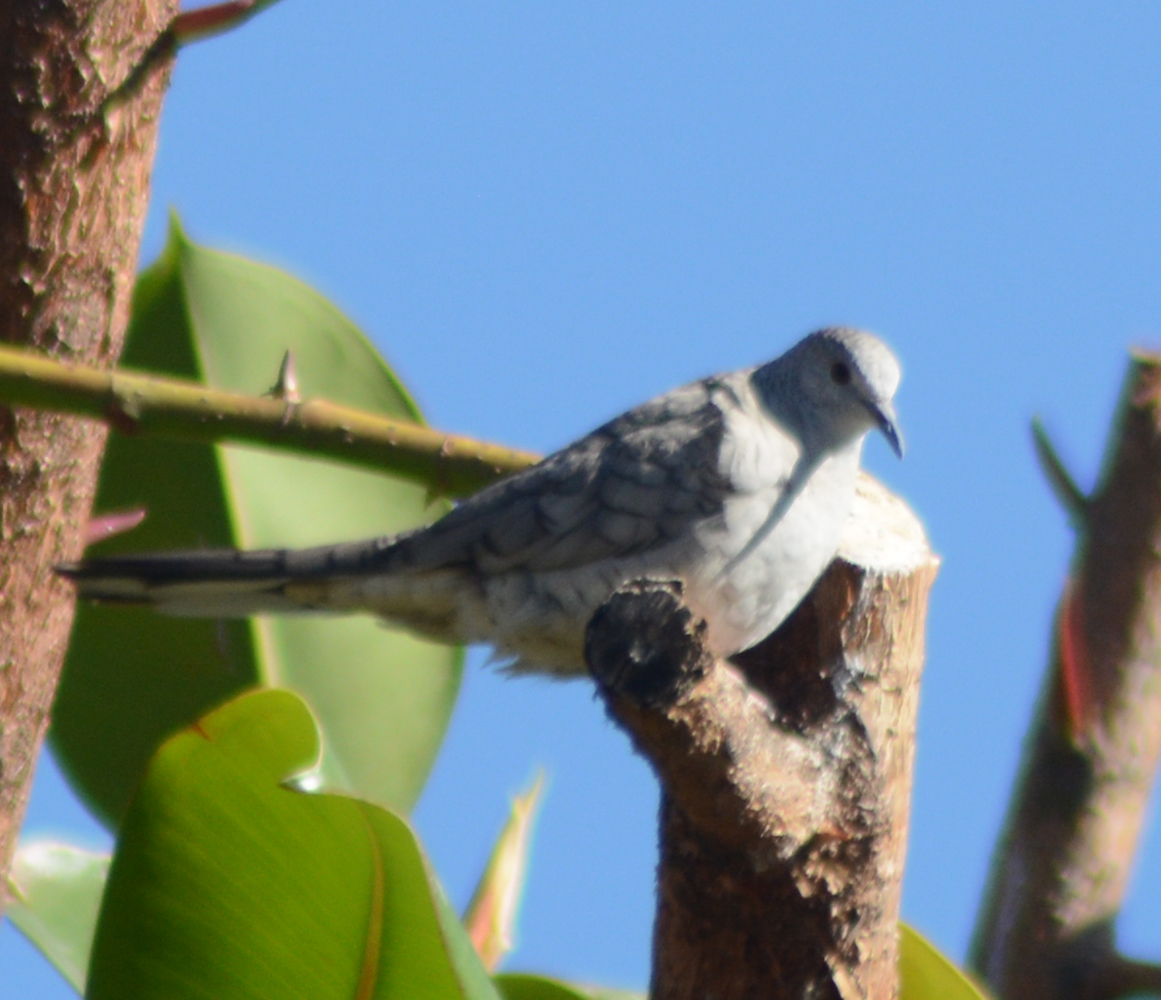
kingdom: Animalia
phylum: Chordata
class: Aves
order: Columbiformes
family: Columbidae
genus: Columbina
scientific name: Columbina inca
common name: Inca dove
